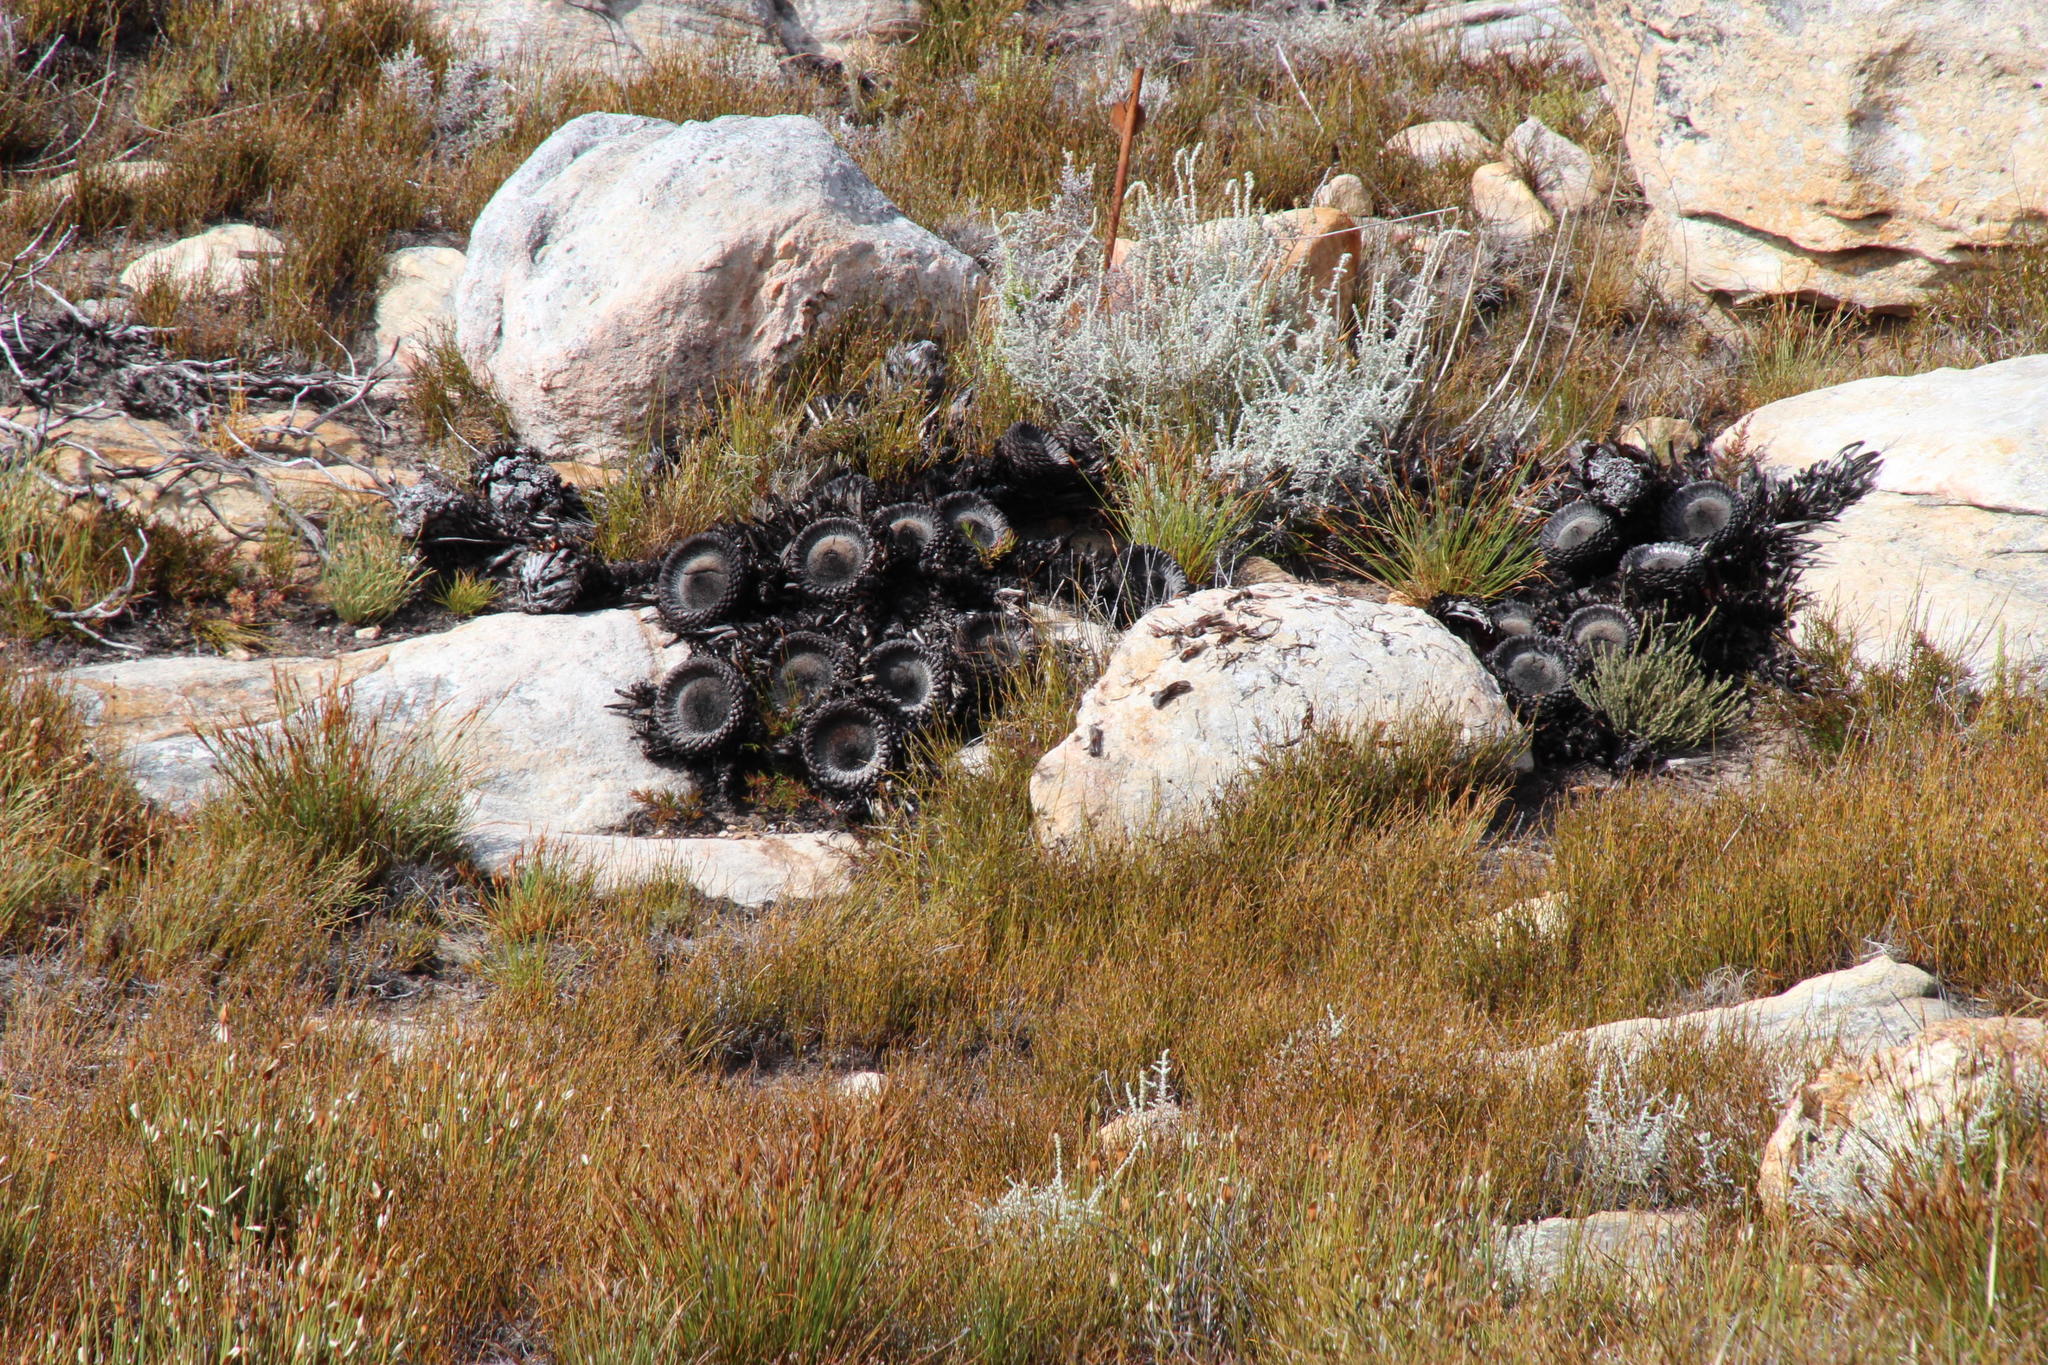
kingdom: Plantae
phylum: Tracheophyta
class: Magnoliopsida
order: Proteales
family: Proteaceae
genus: Protea
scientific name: Protea cryophila
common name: Snow protea
